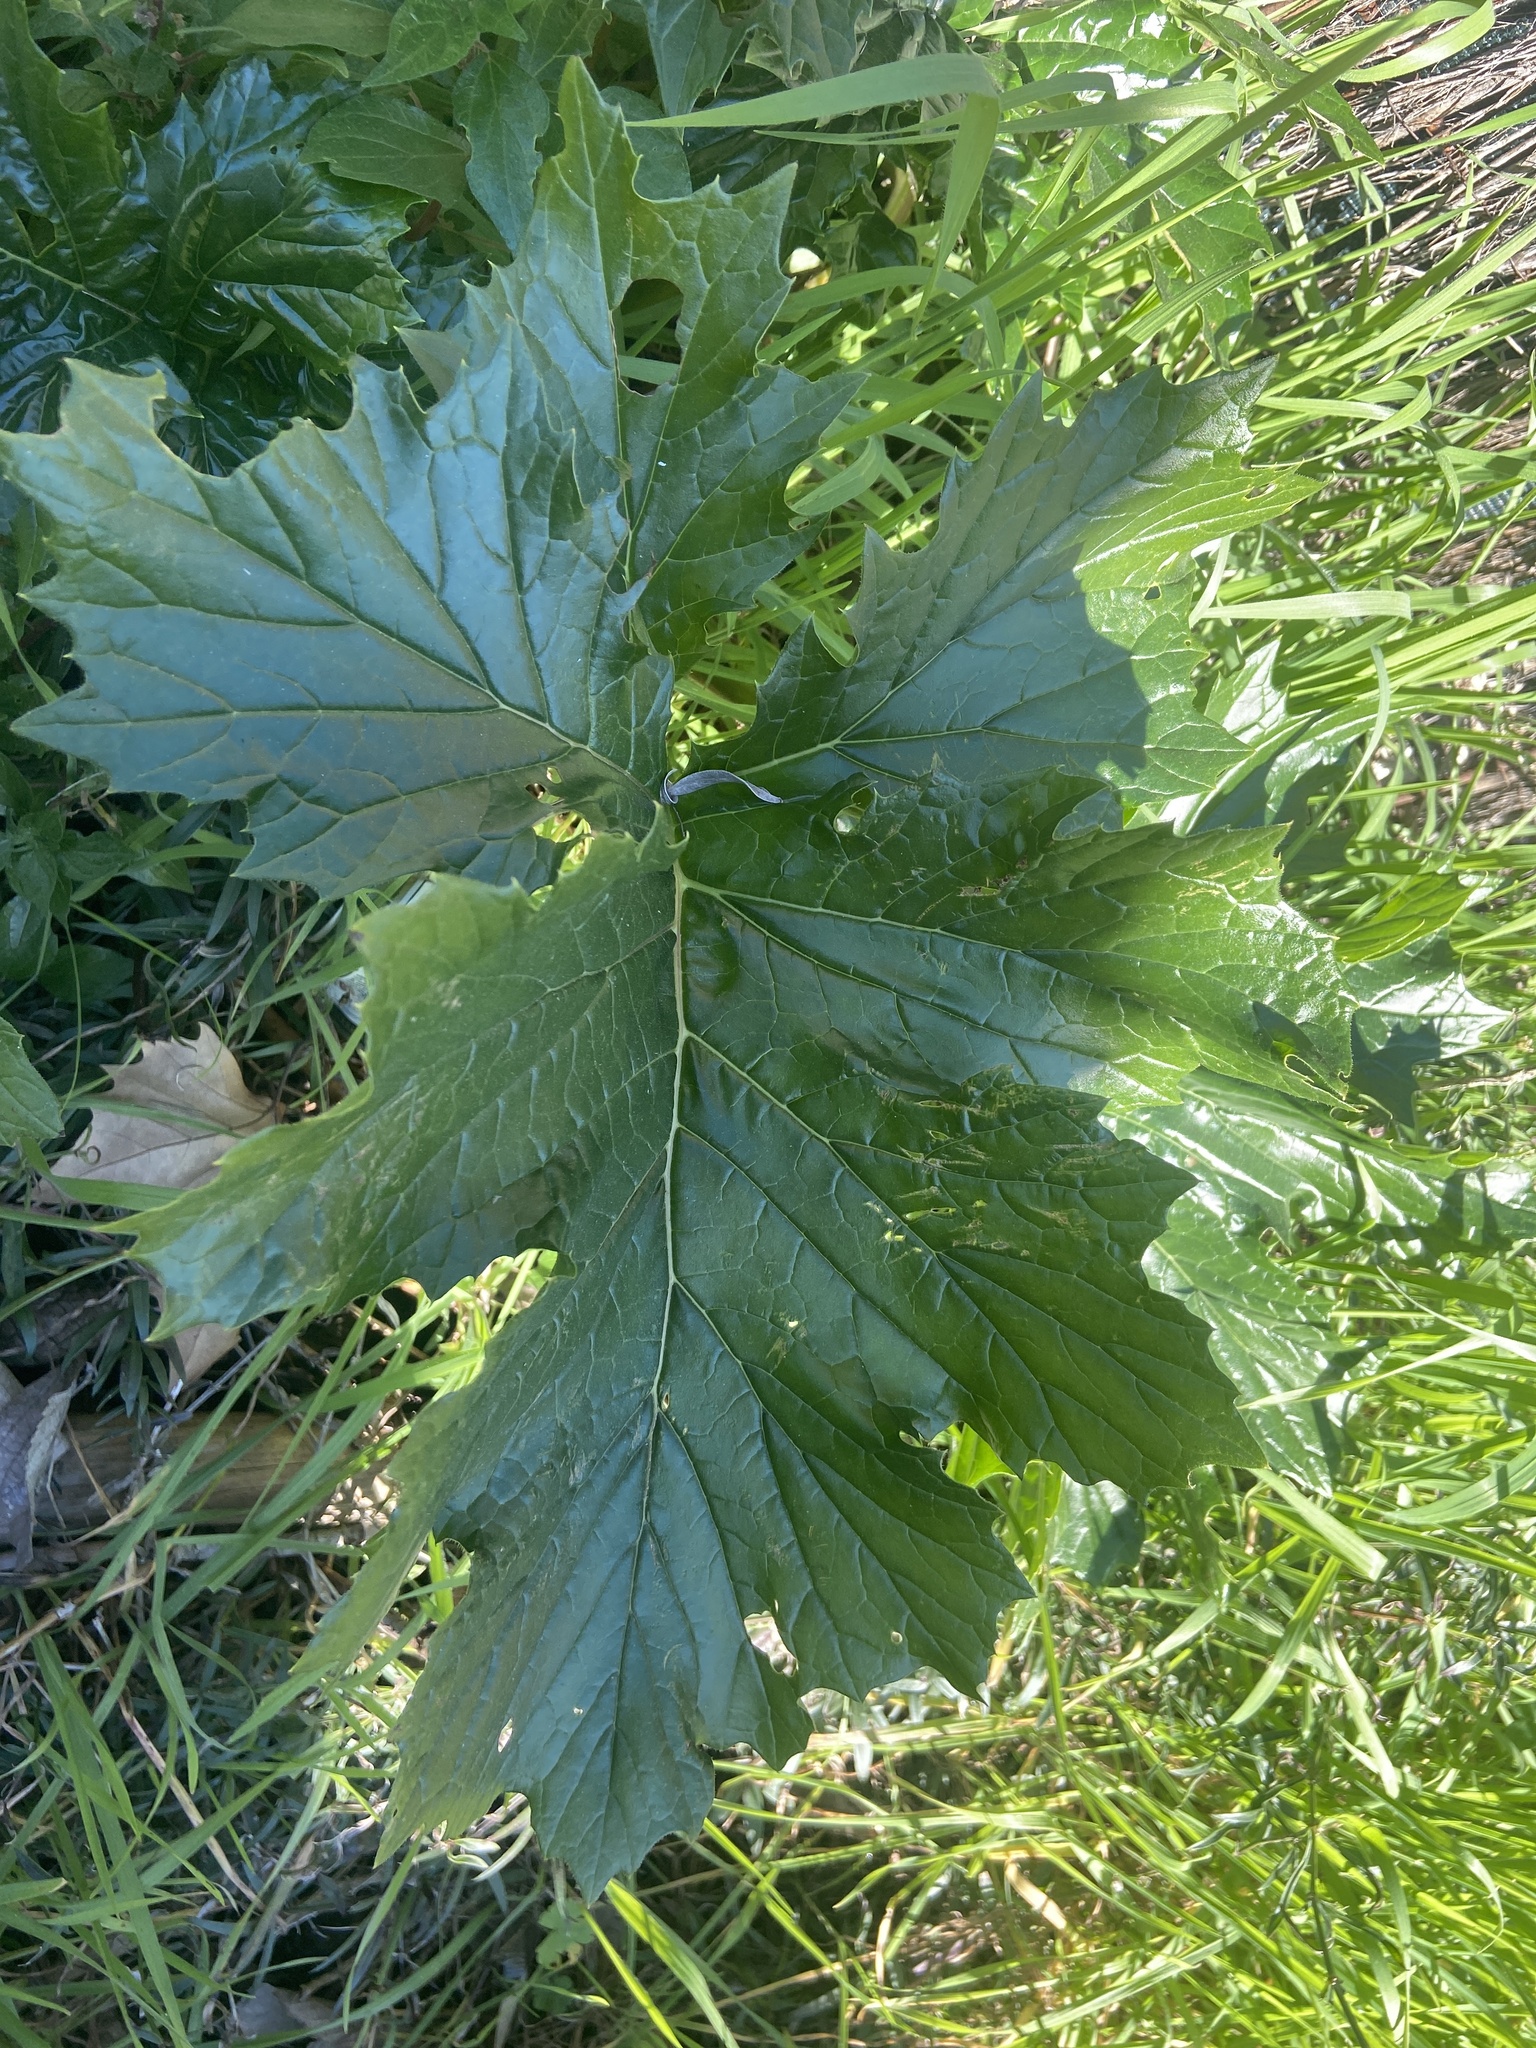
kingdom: Plantae
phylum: Tracheophyta
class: Magnoliopsida
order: Lamiales
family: Acanthaceae
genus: Acanthus
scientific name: Acanthus mollis
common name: Bear's-breech
